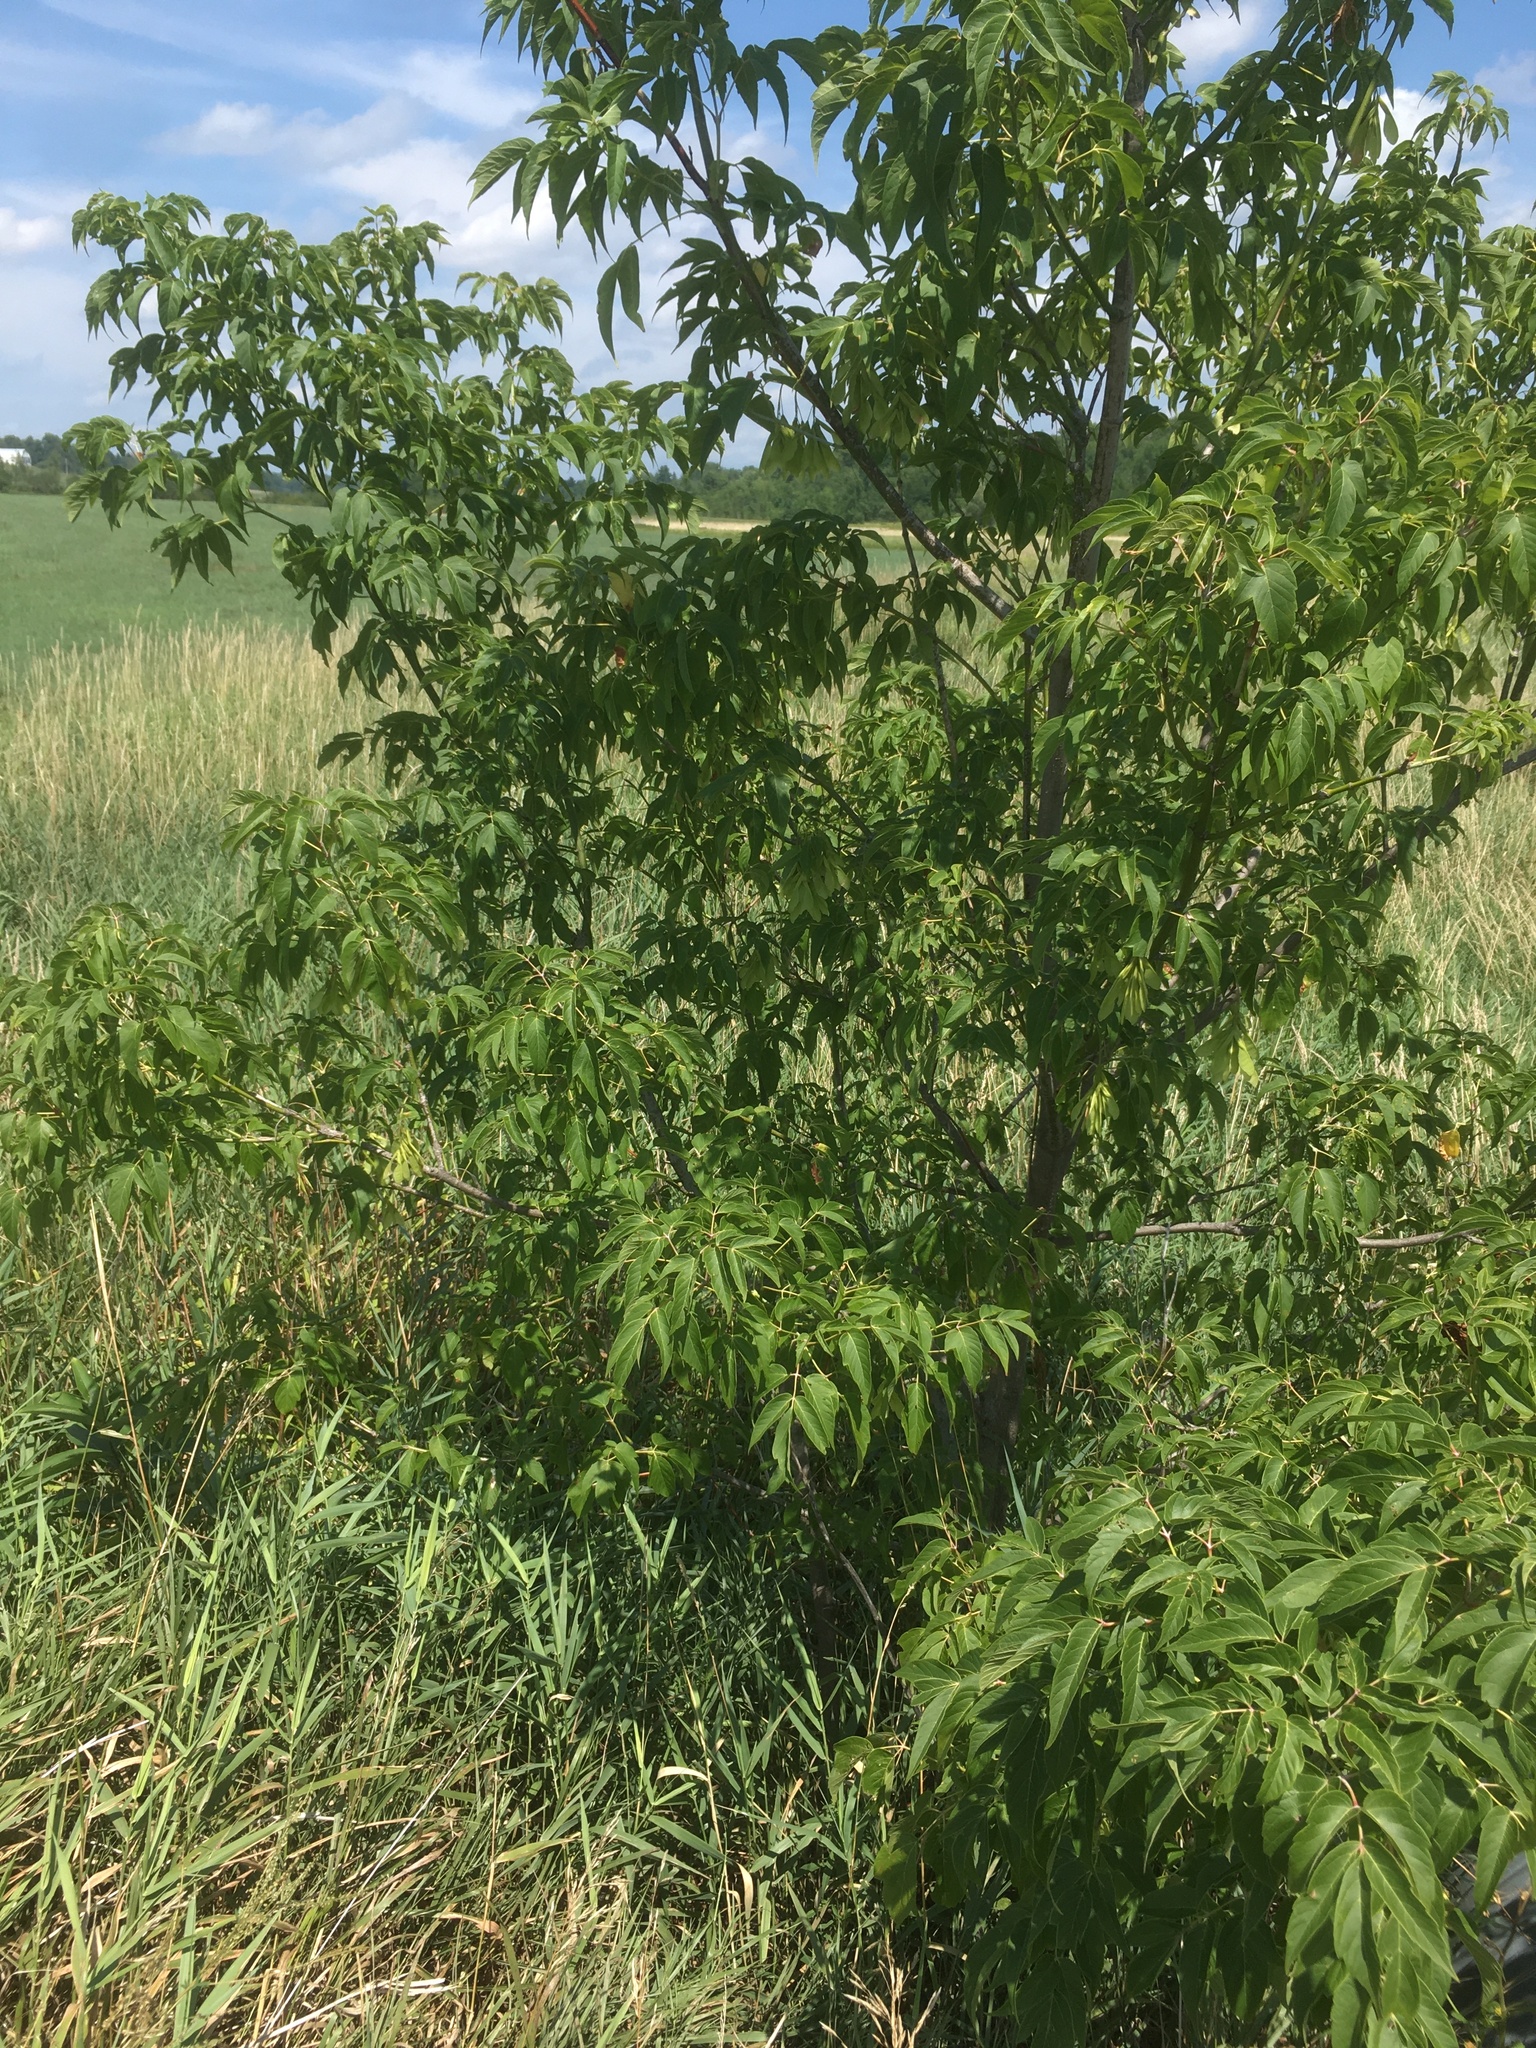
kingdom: Plantae
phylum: Tracheophyta
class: Magnoliopsida
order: Sapindales
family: Sapindaceae
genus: Acer
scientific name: Acer negundo
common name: Ashleaf maple
